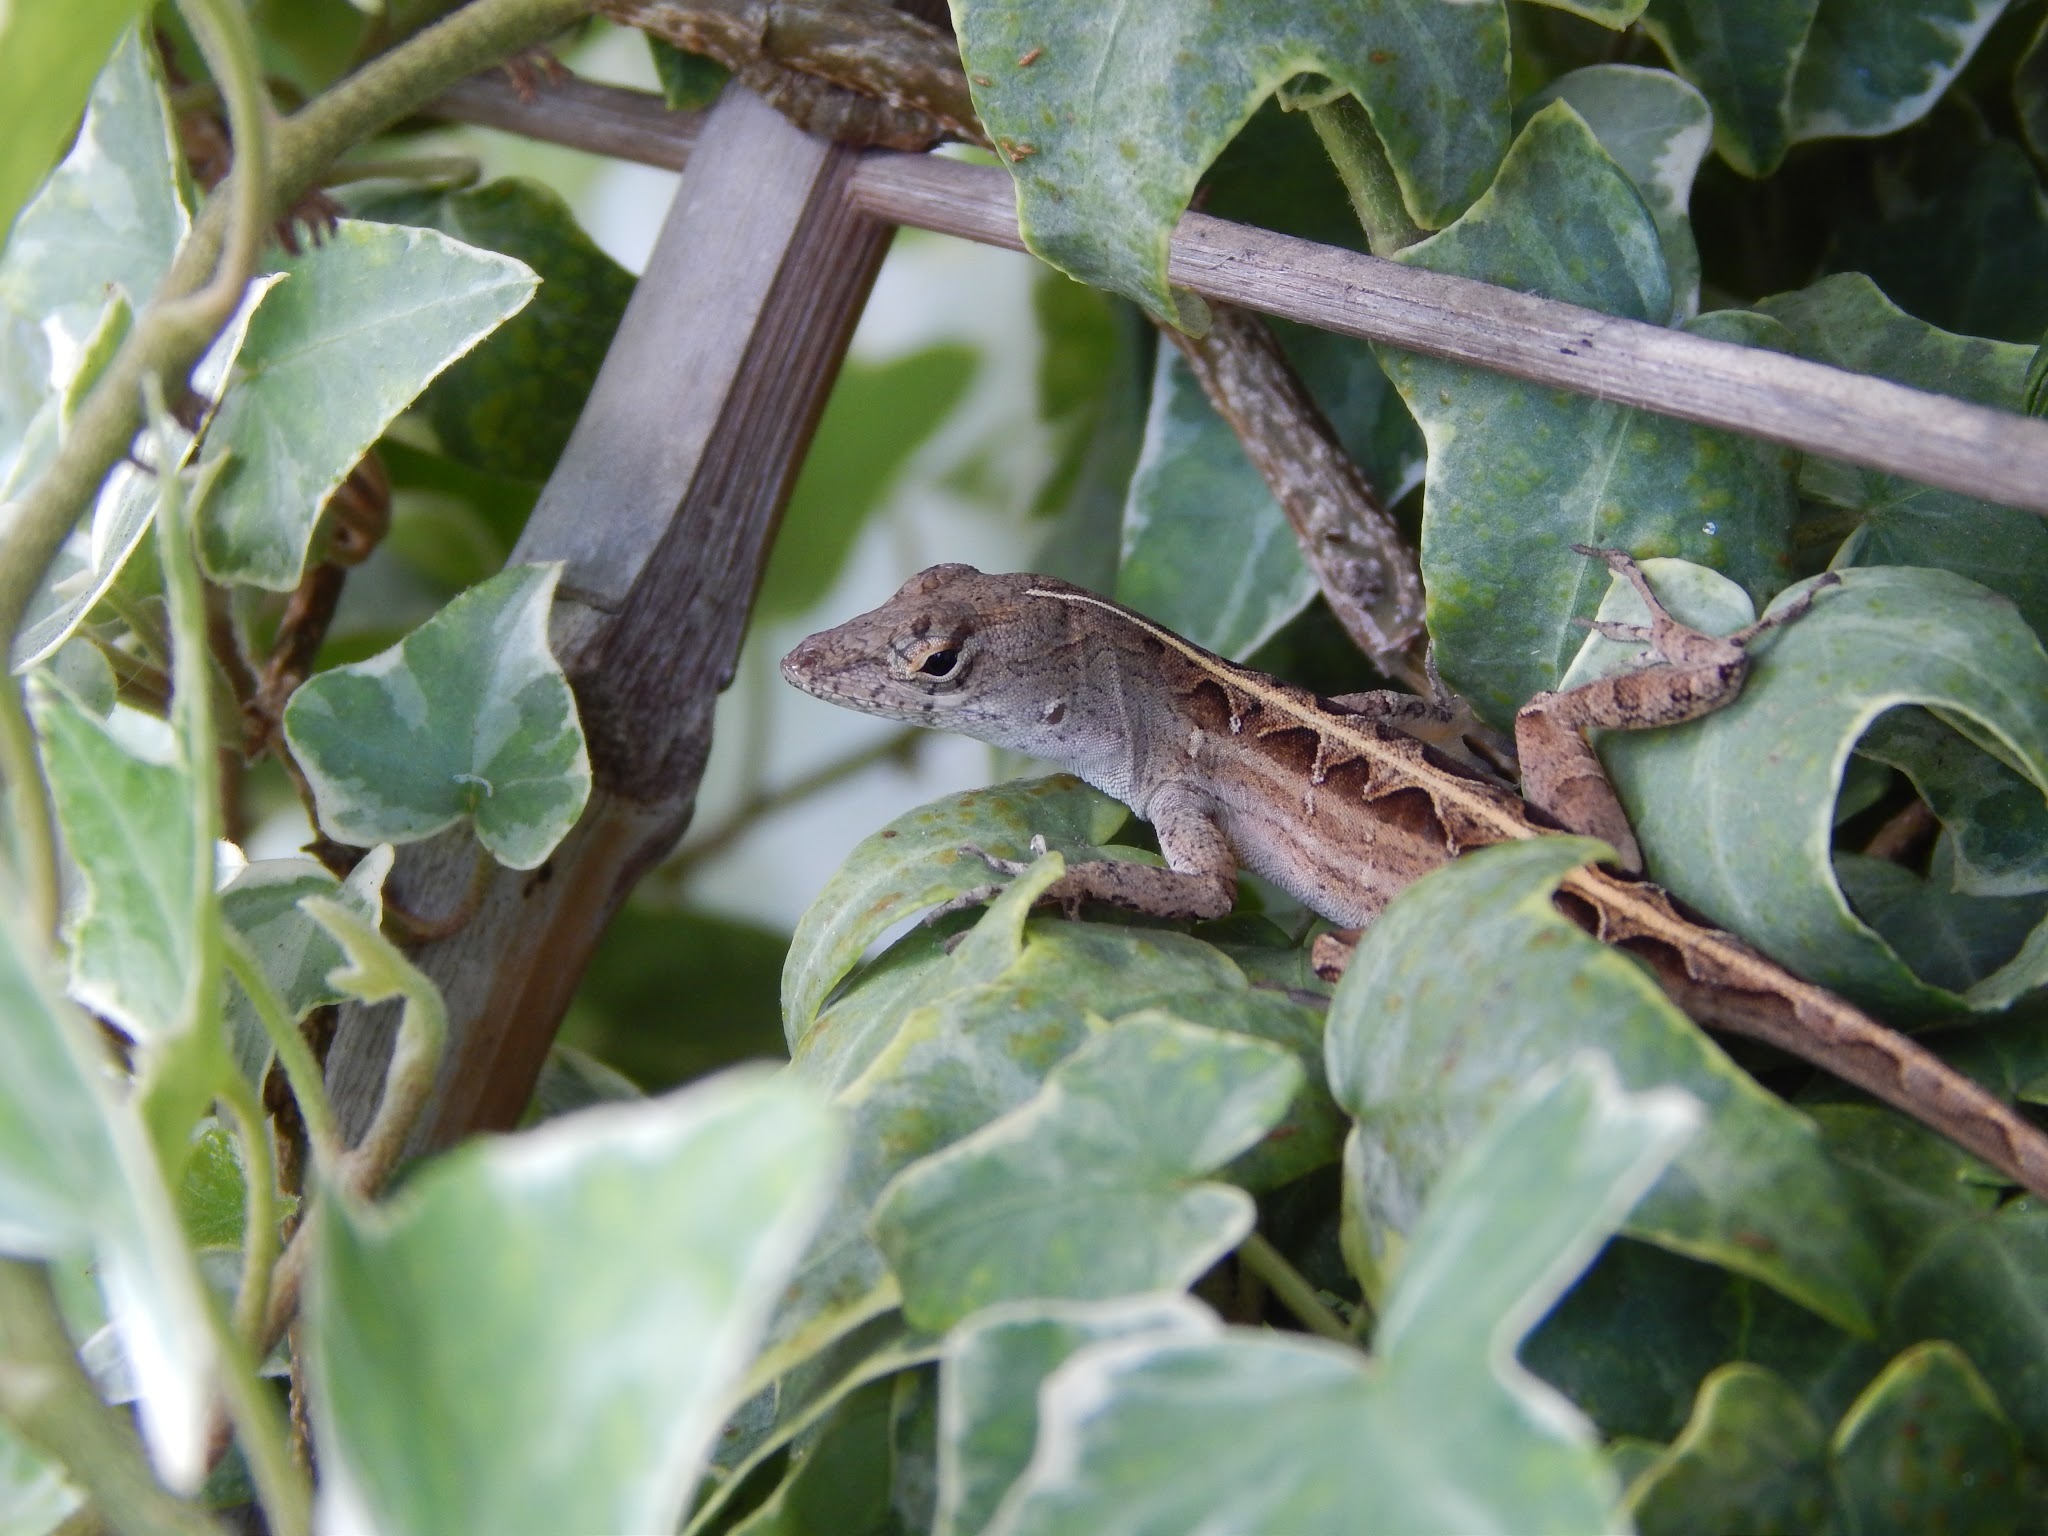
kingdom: Animalia
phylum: Chordata
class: Squamata
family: Dactyloidae
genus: Anolis
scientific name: Anolis sagrei
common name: Brown anole
